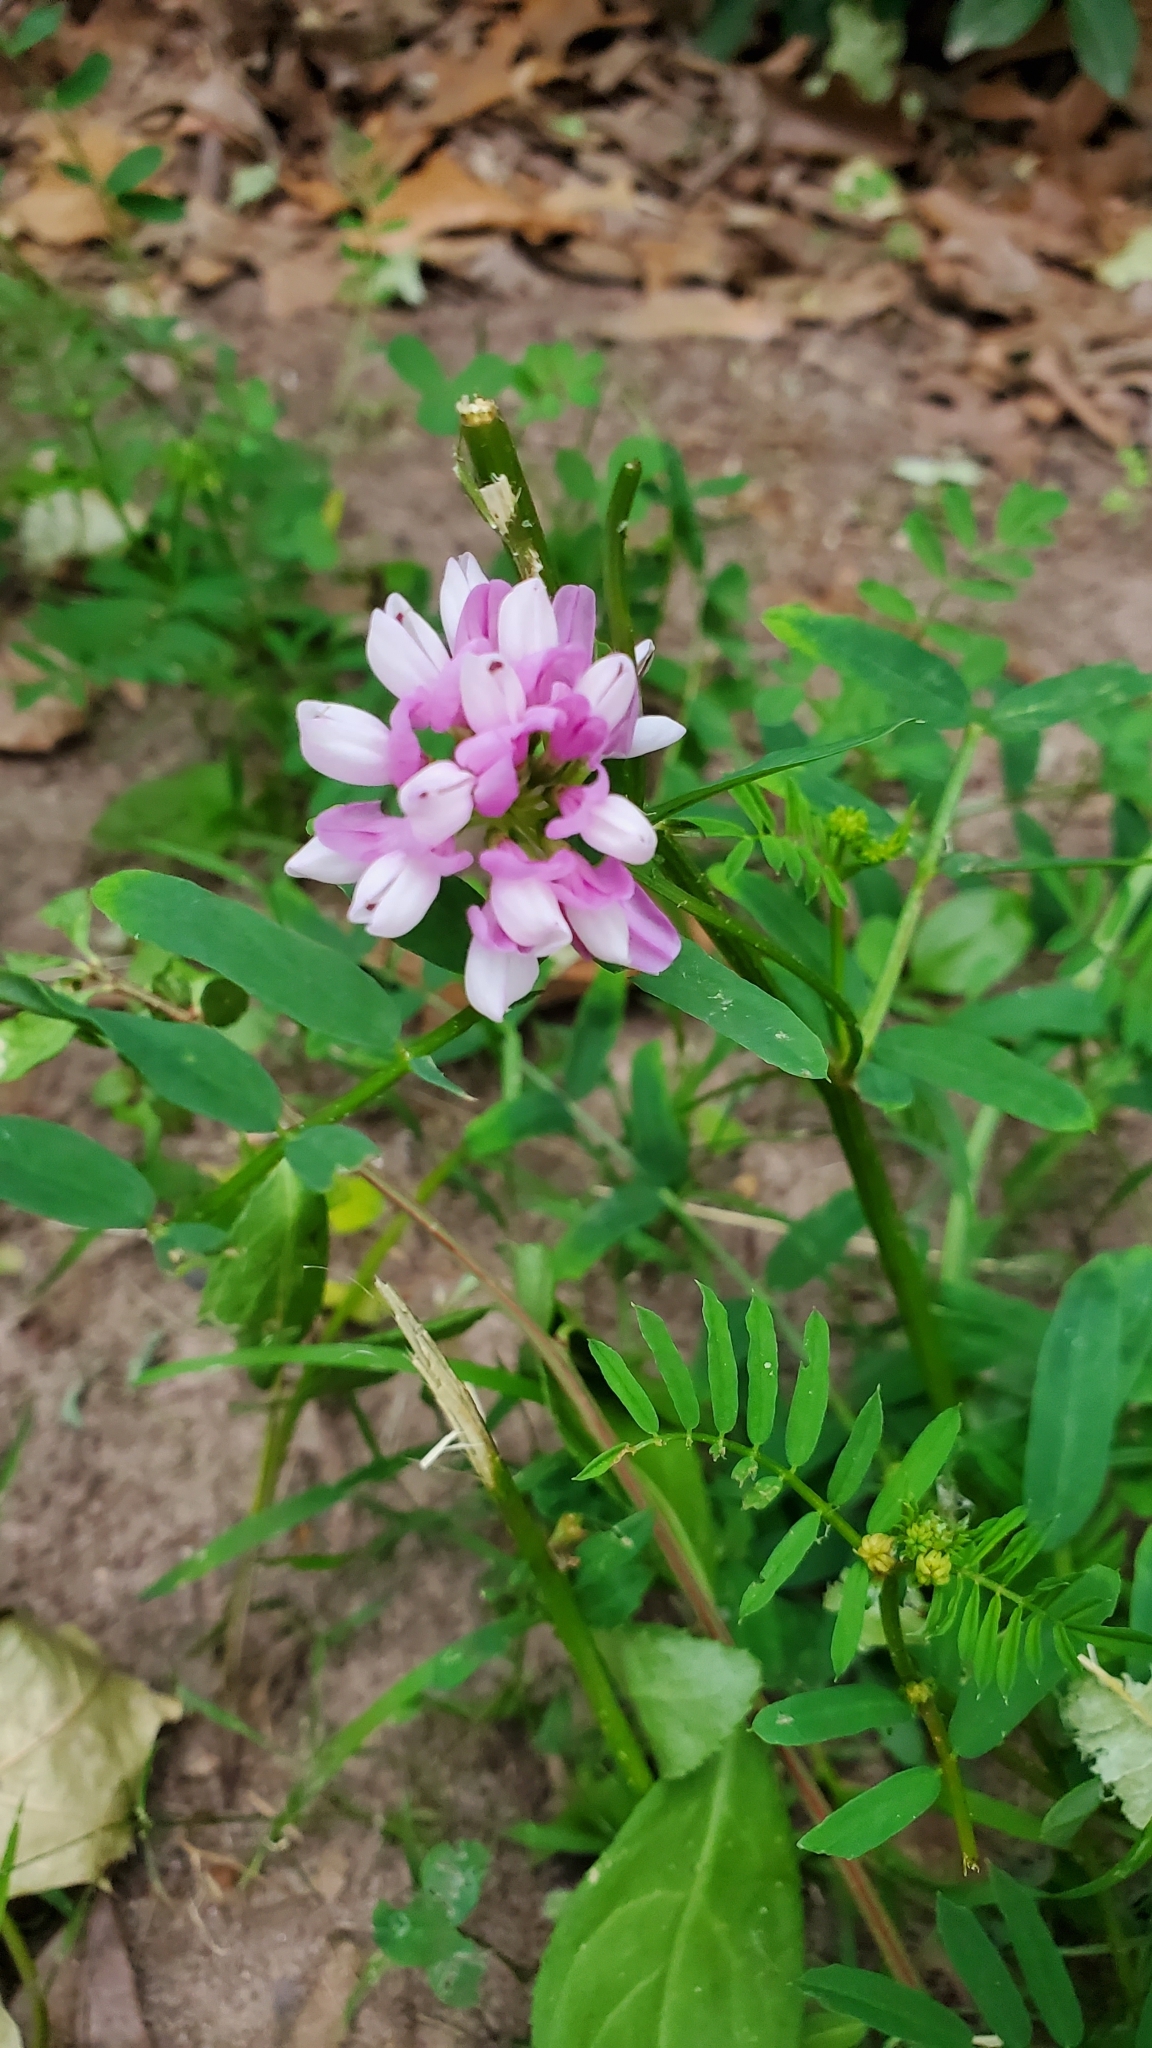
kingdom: Plantae
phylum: Tracheophyta
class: Magnoliopsida
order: Fabales
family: Fabaceae
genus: Coronilla
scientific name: Coronilla varia
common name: Crownvetch
